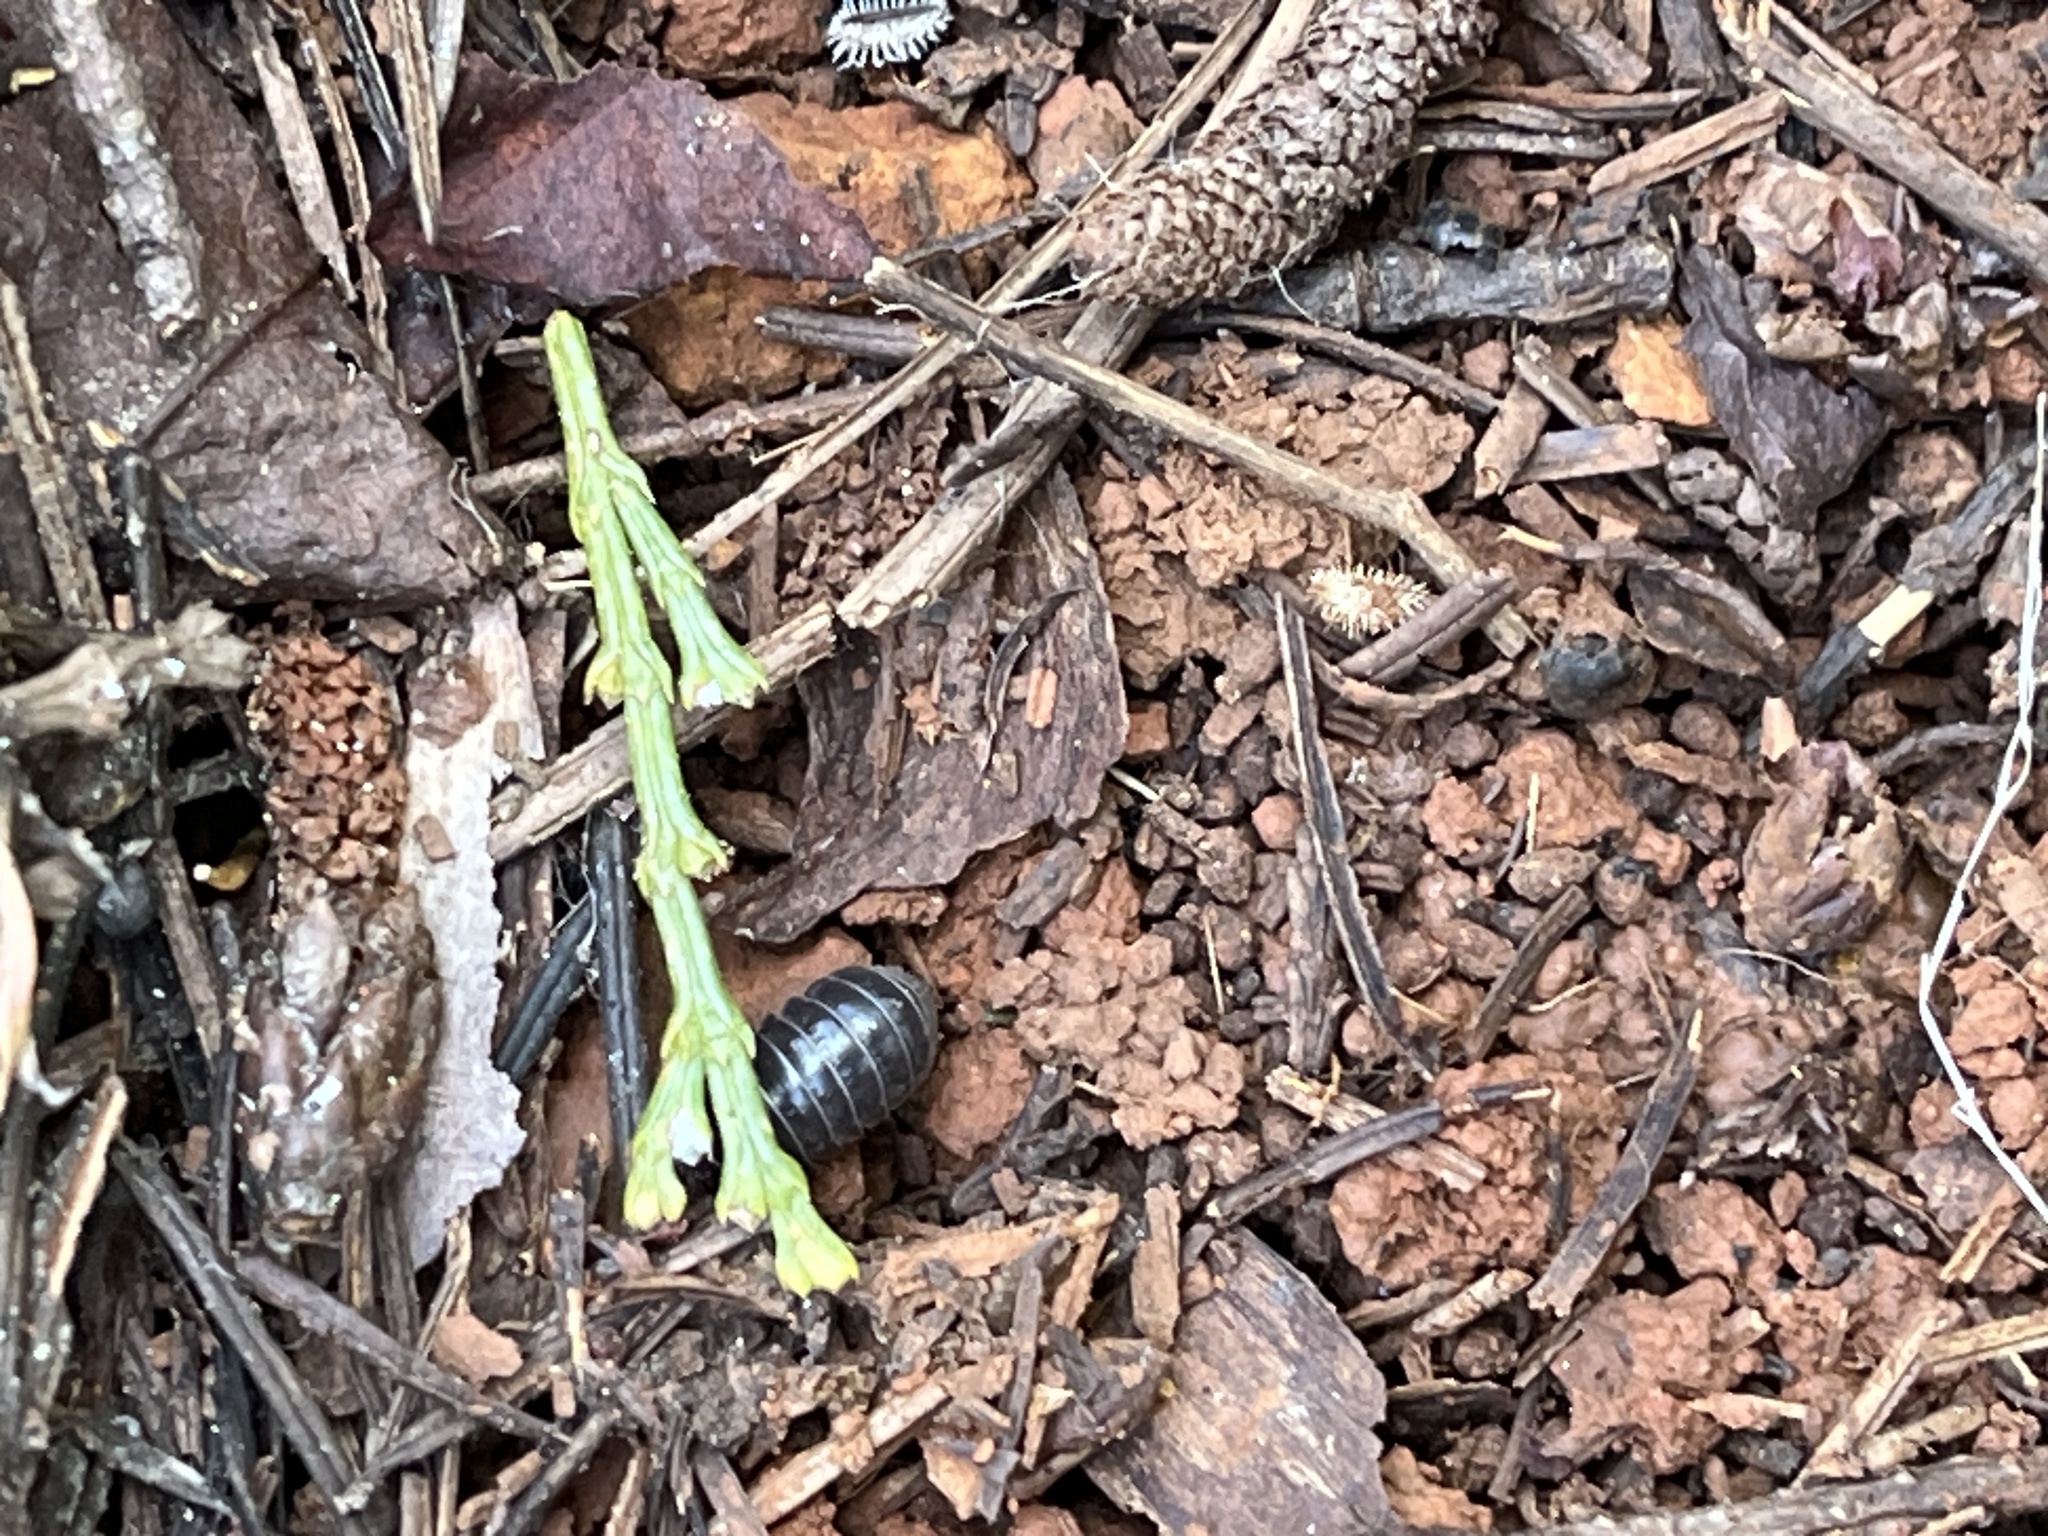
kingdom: Animalia
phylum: Arthropoda
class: Malacostraca
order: Isopoda
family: Armadillidiidae
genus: Armadillidium
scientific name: Armadillidium vulgare
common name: Common pill woodlouse
